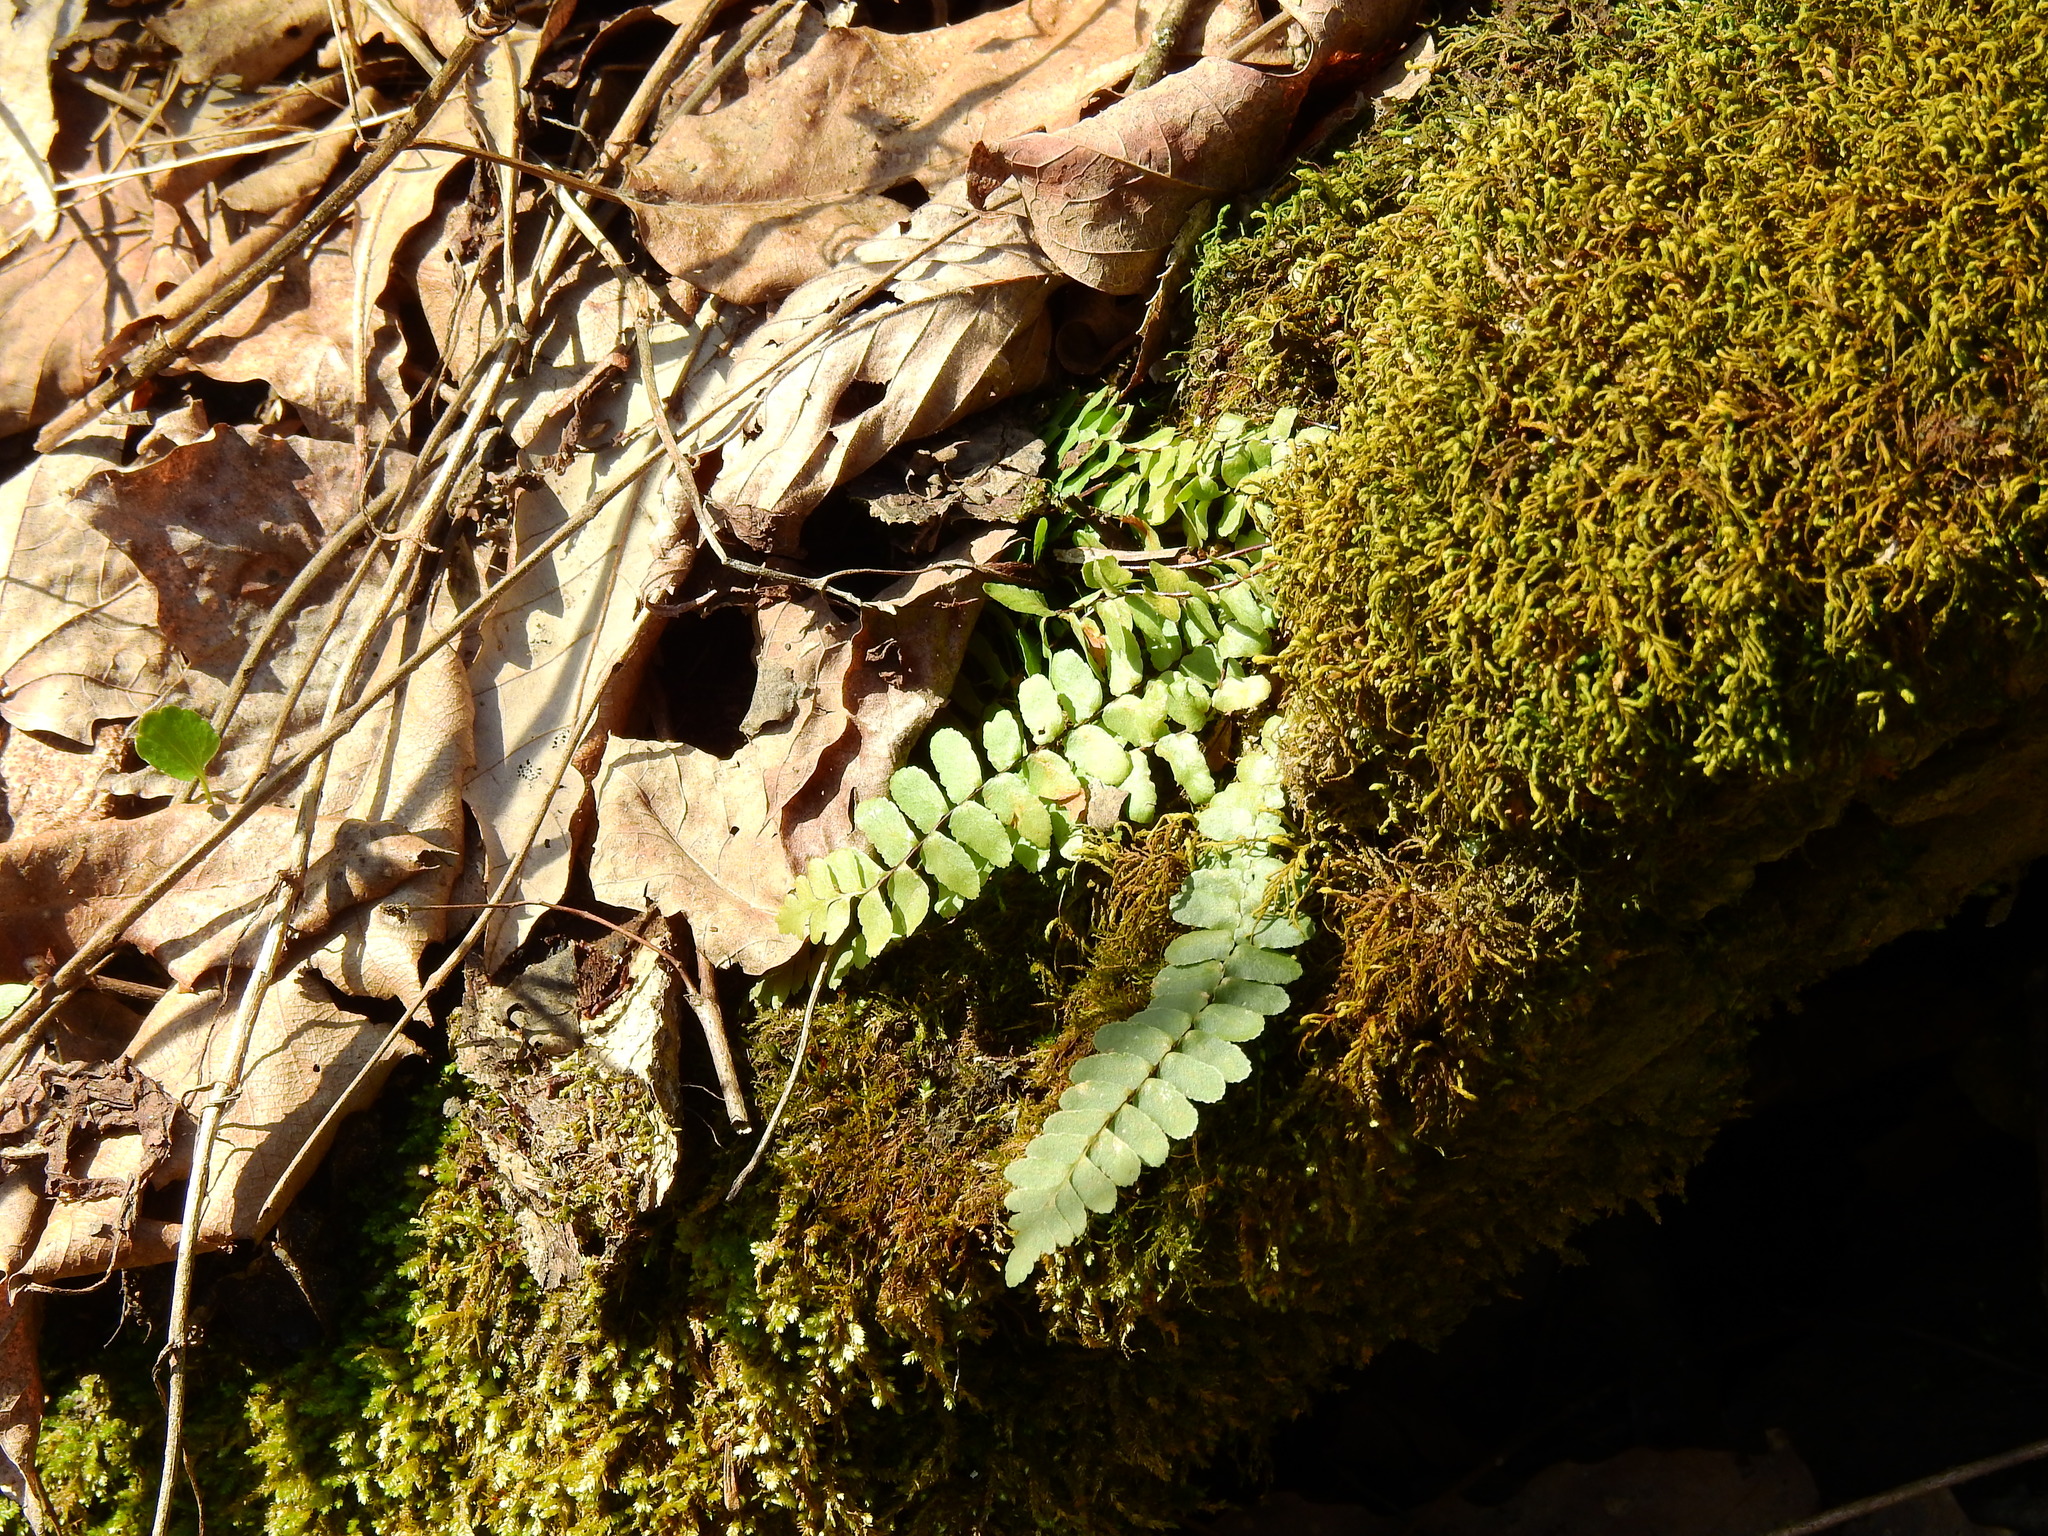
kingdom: Plantae
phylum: Tracheophyta
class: Polypodiopsida
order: Polypodiales
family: Aspleniaceae
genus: Asplenium
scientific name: Asplenium platyneuron
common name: Ebony spleenwort
